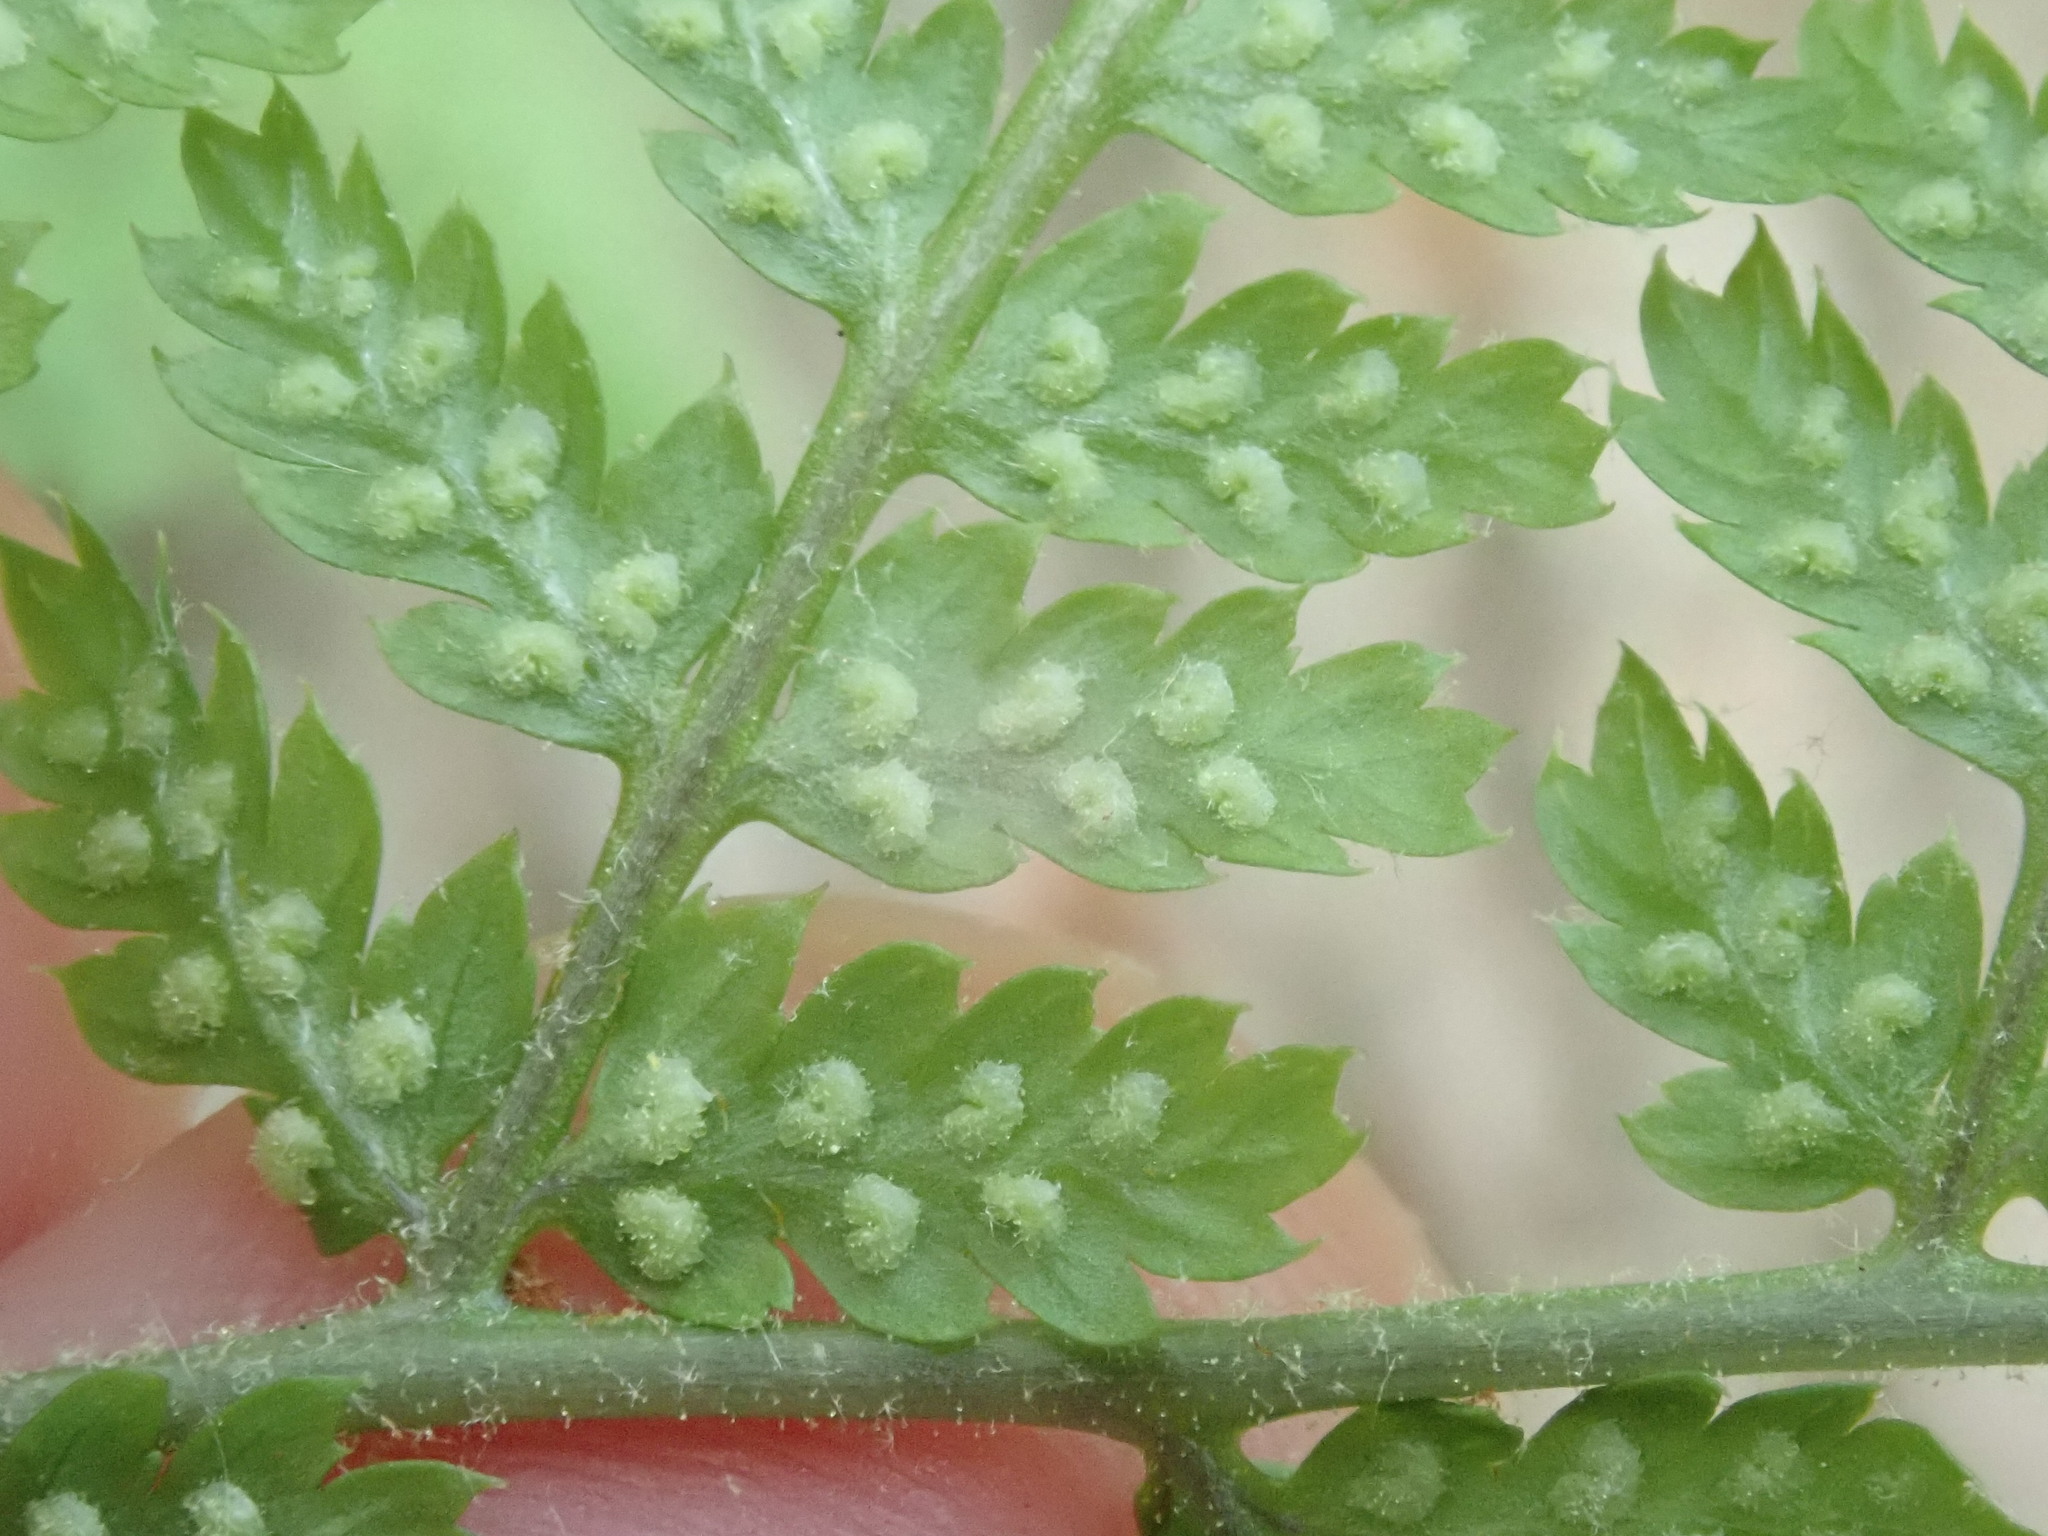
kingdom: Plantae
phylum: Tracheophyta
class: Polypodiopsida
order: Polypodiales
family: Dryopteridaceae
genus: Dryopteris
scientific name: Dryopteris intermedia
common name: Evergreen wood fern
